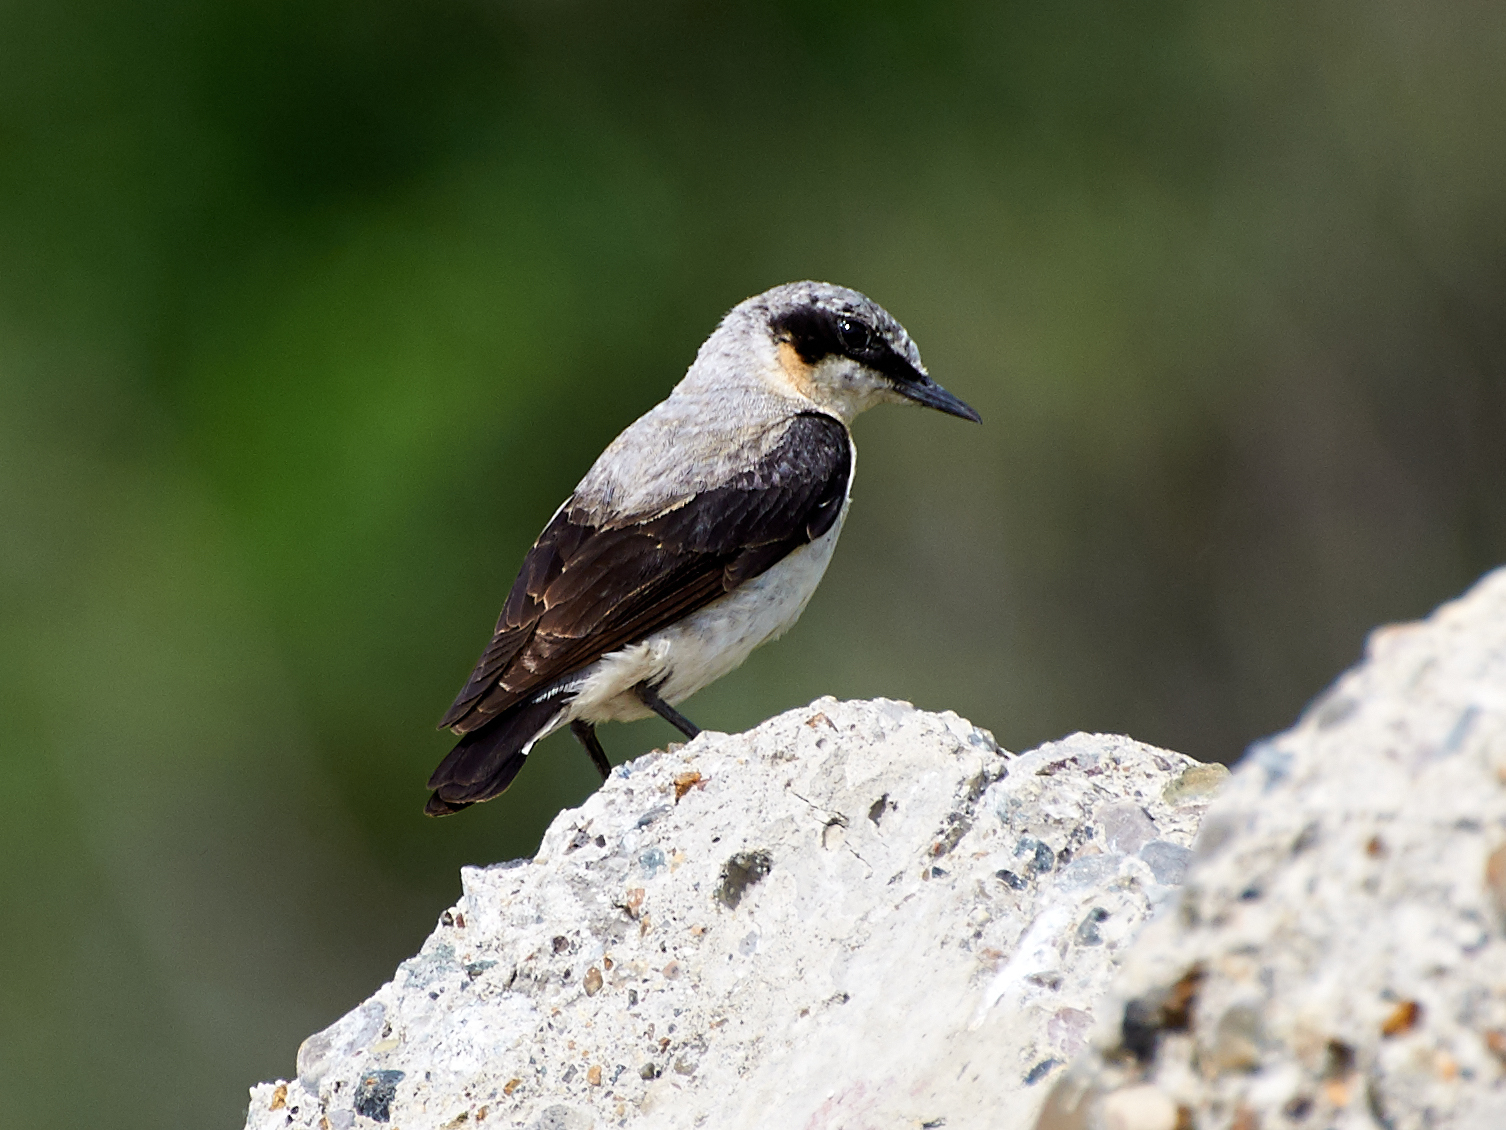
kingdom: Animalia
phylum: Chordata
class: Aves
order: Passeriformes
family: Muscicapidae
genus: Oenanthe
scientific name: Oenanthe oenanthe
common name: Northern wheatear
